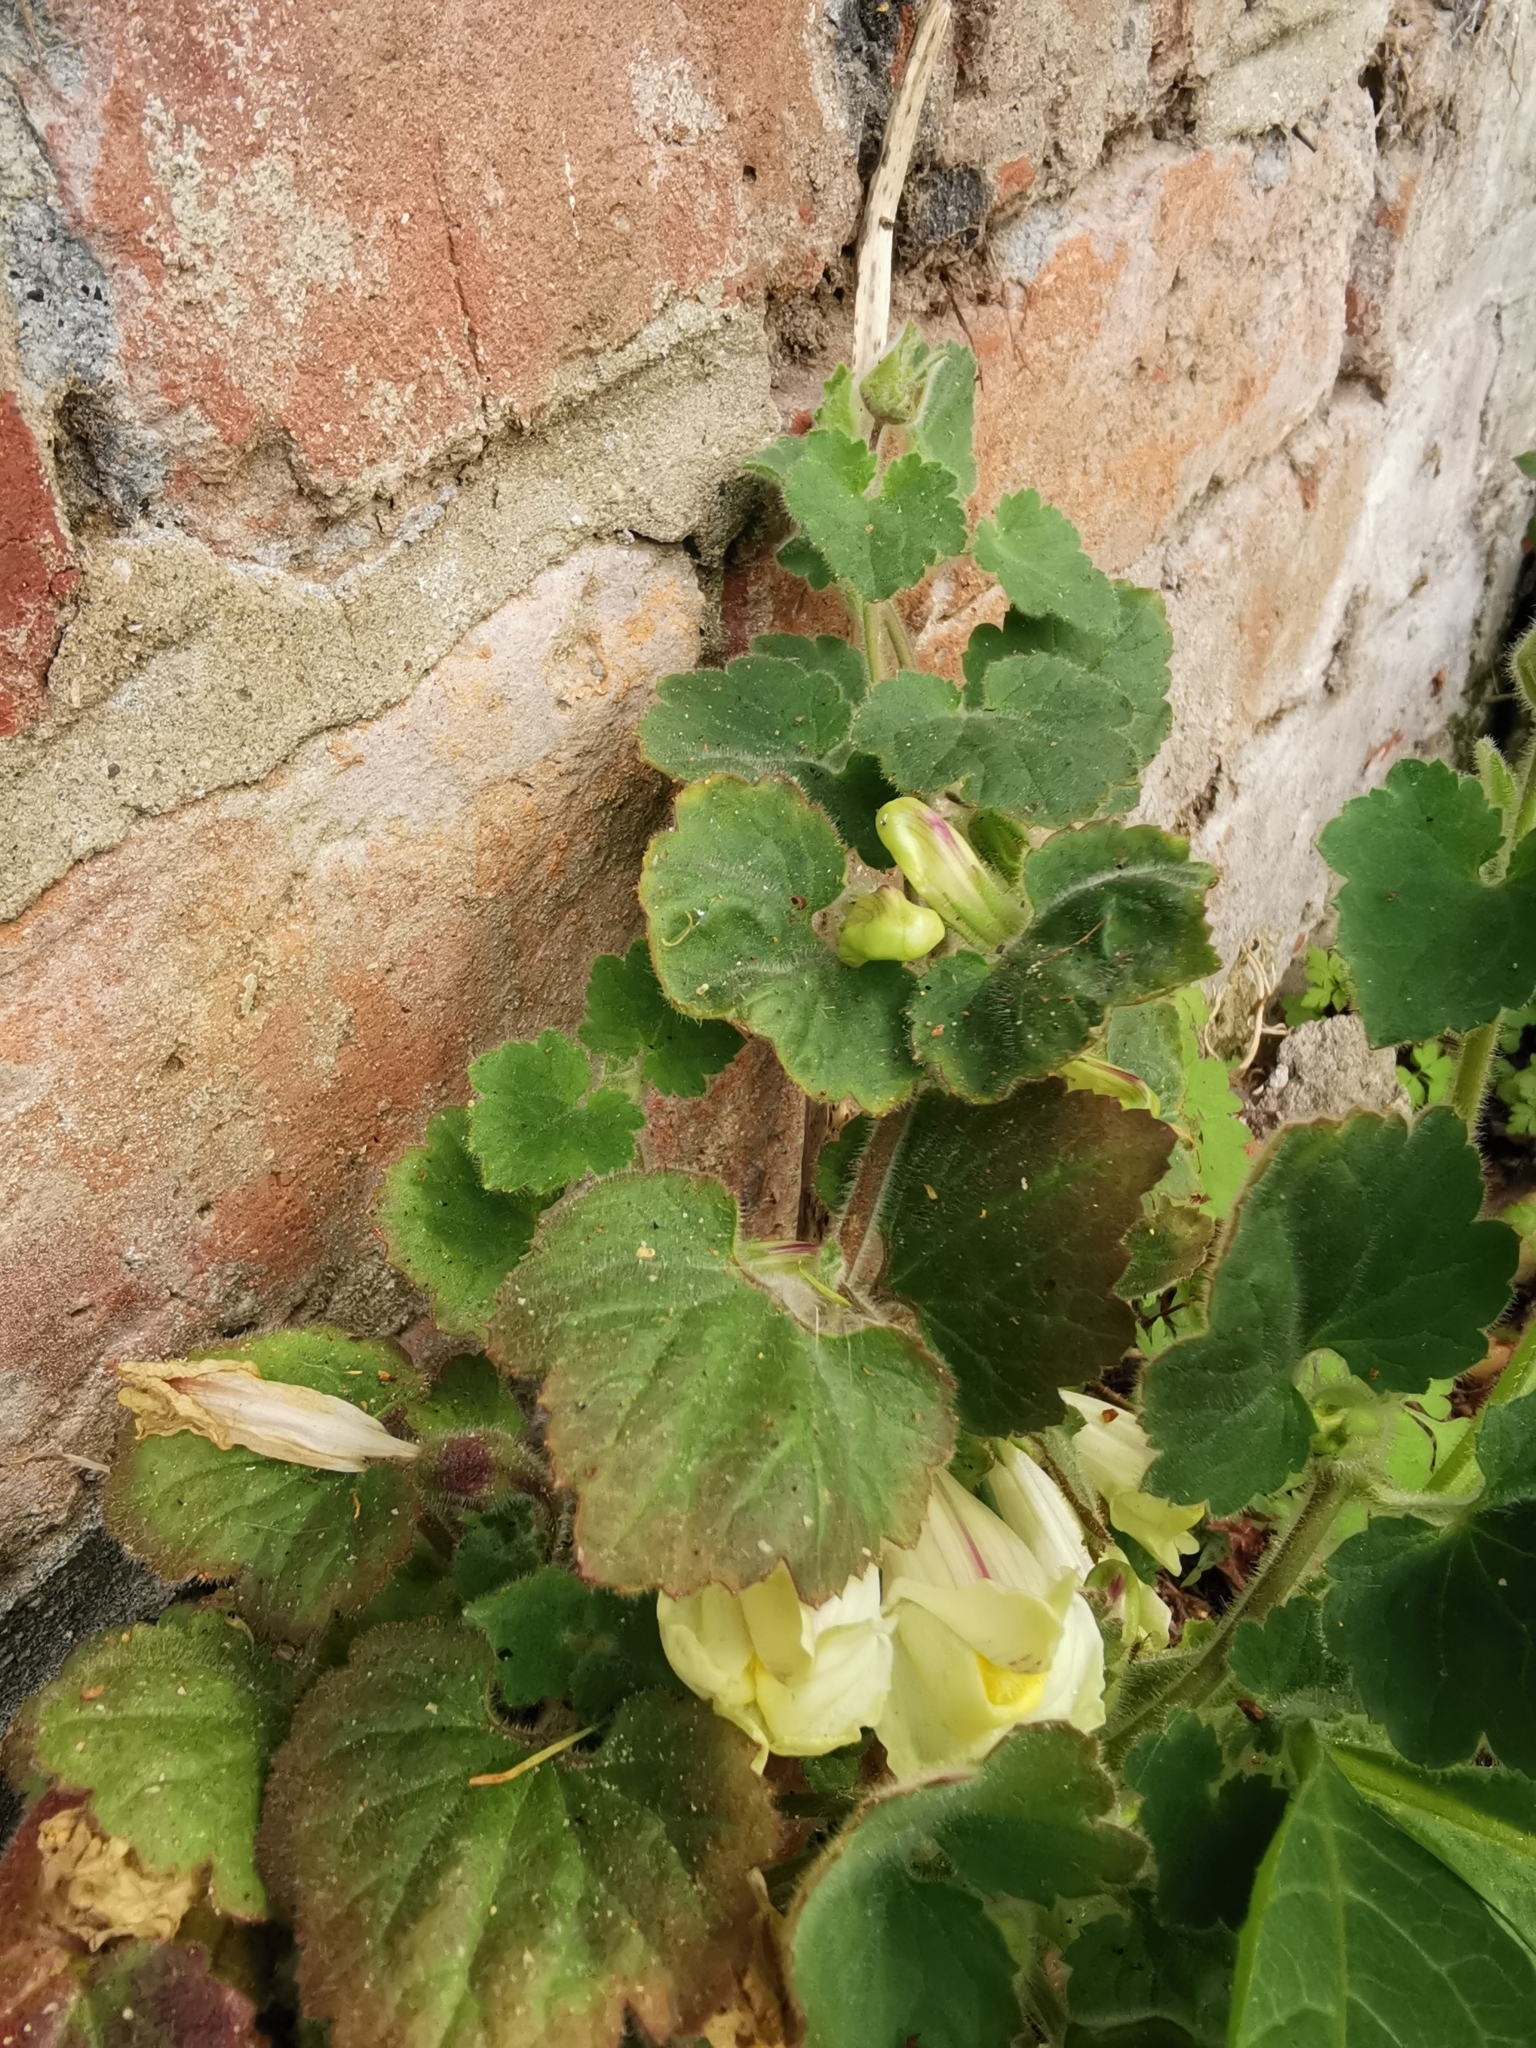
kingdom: Plantae
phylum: Tracheophyta
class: Magnoliopsida
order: Lamiales
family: Plantaginaceae
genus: Asarina
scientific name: Asarina procumbens
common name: Trailing snapdragon
